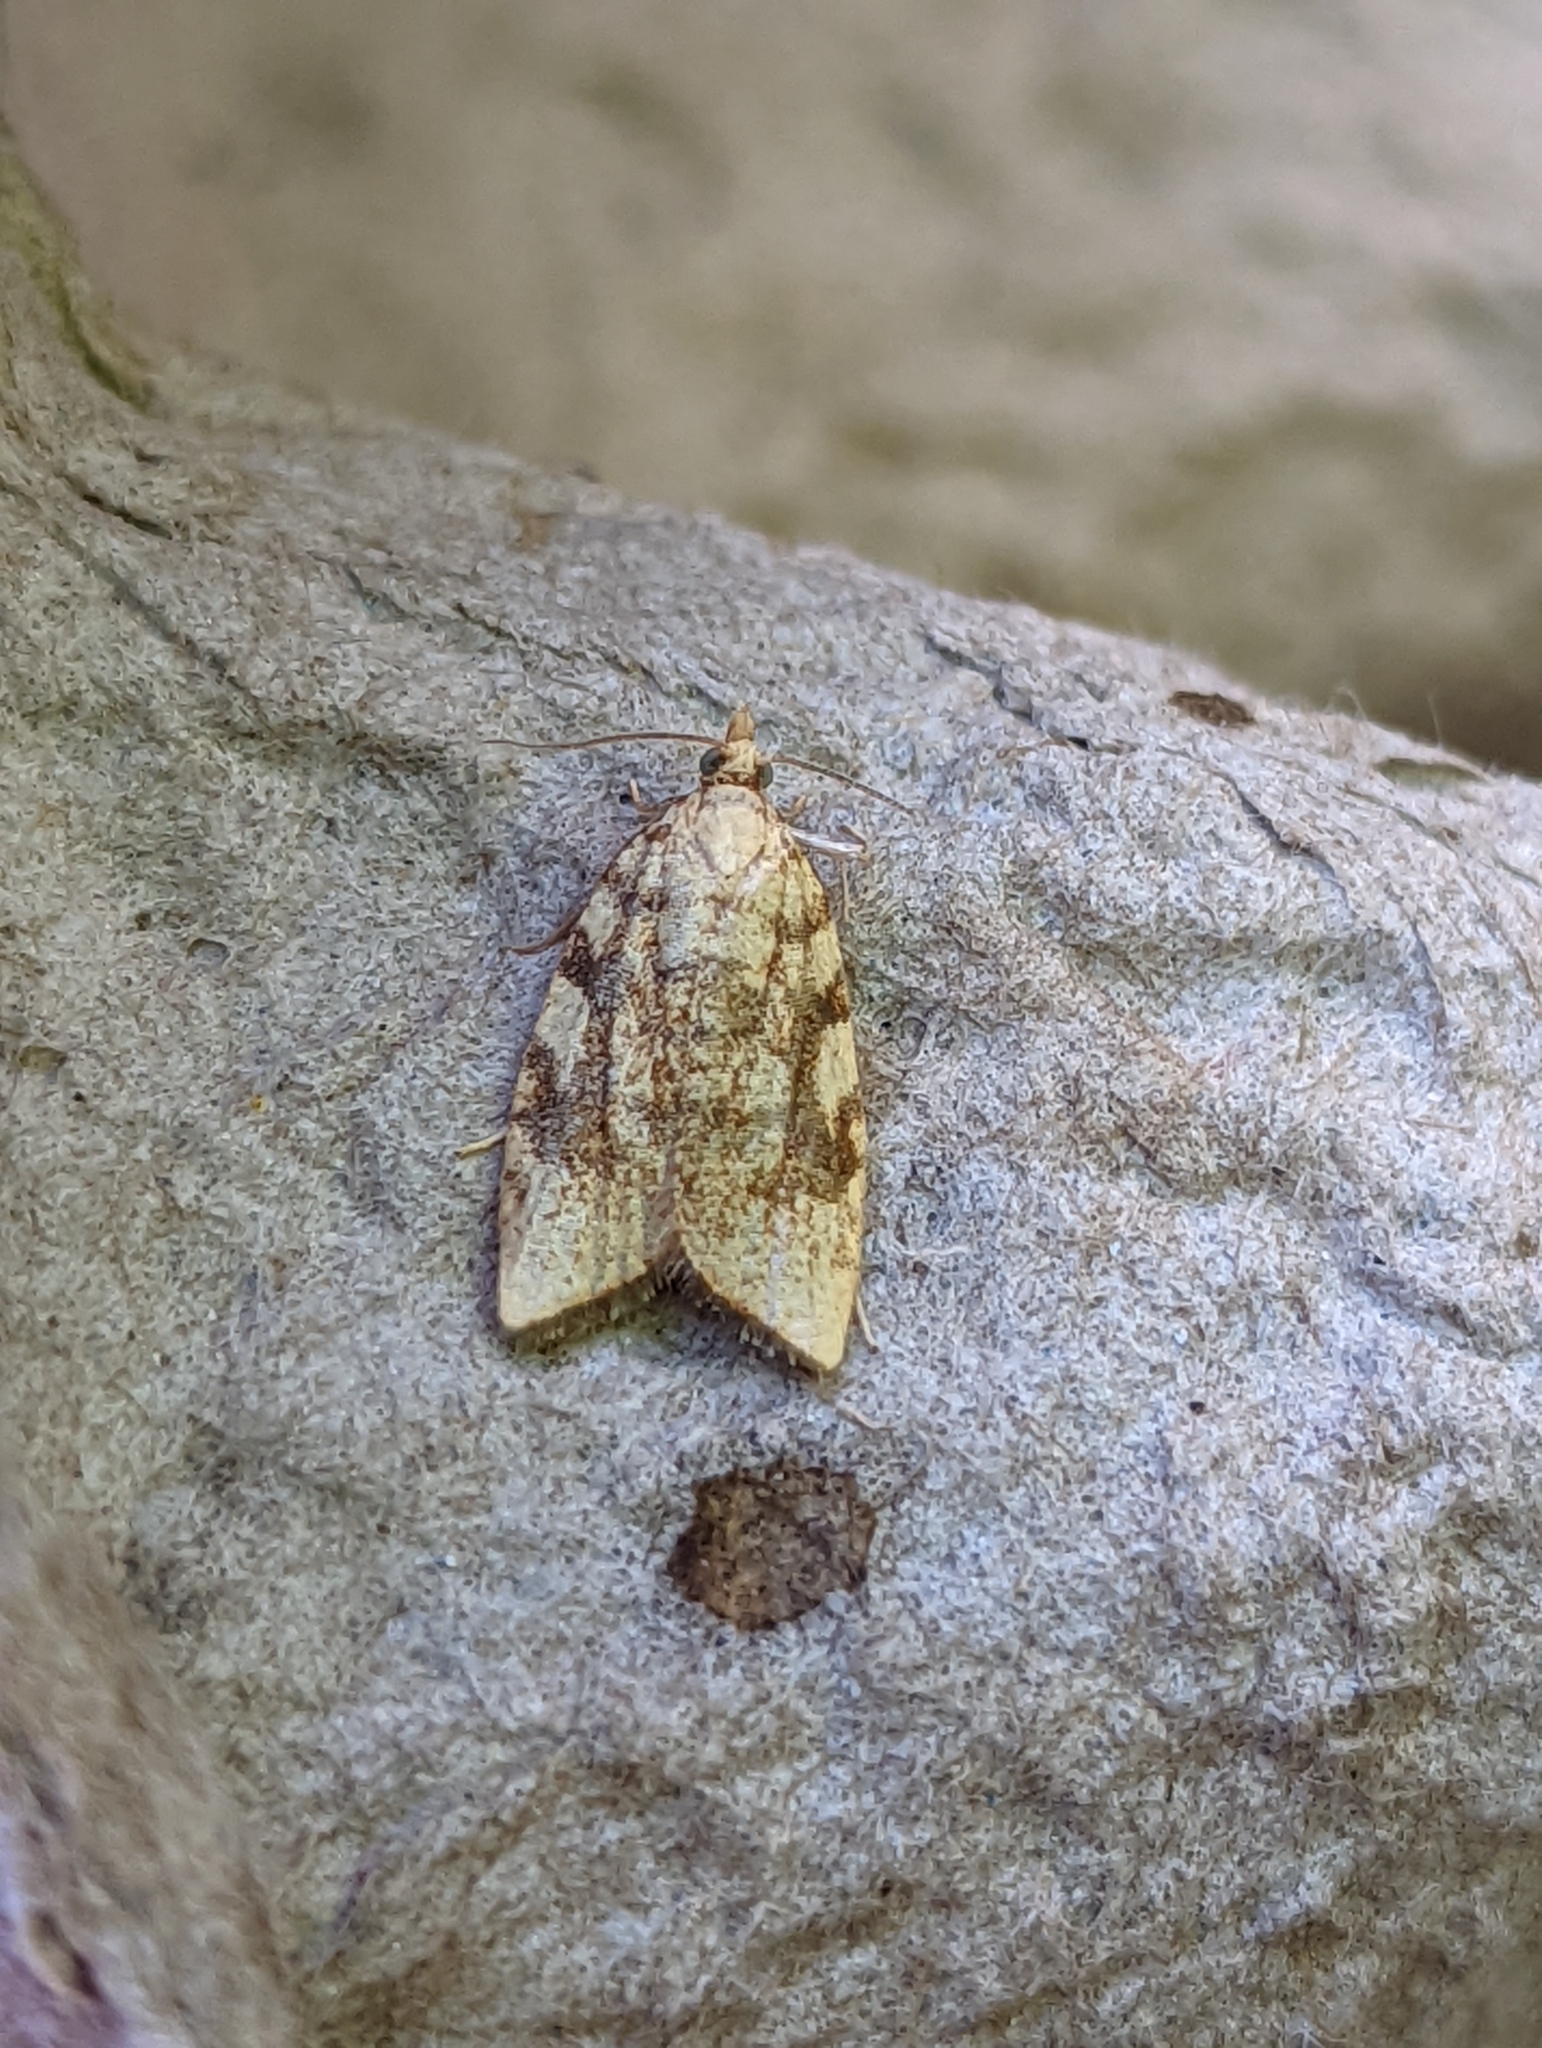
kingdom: Animalia
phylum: Arthropoda
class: Insecta
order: Lepidoptera
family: Tortricidae
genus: Aleimma
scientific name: Aleimma loeflingiana
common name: Yellow oak button
